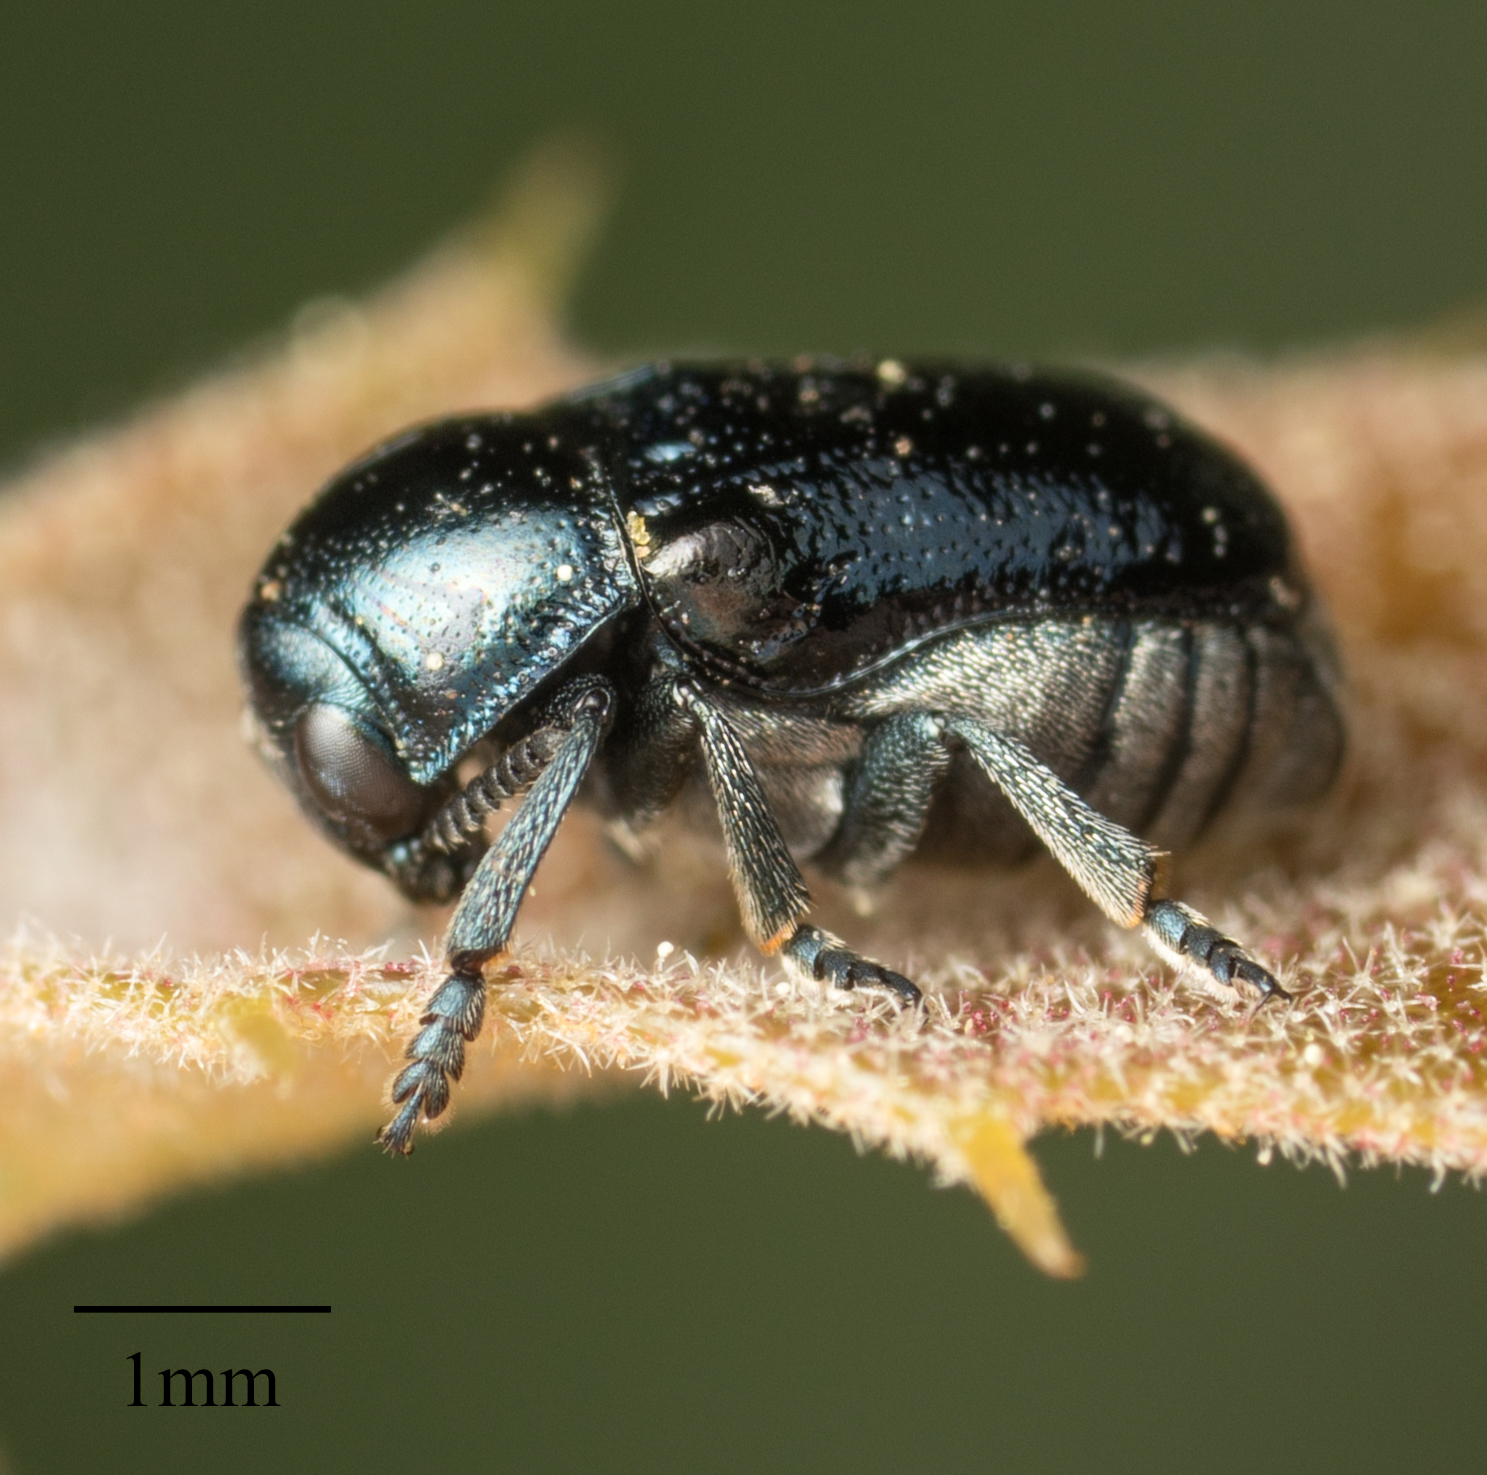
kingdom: Animalia
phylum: Arthropoda
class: Insecta
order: Coleoptera
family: Chrysomelidae
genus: Saxinis
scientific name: Saxinis saucia
